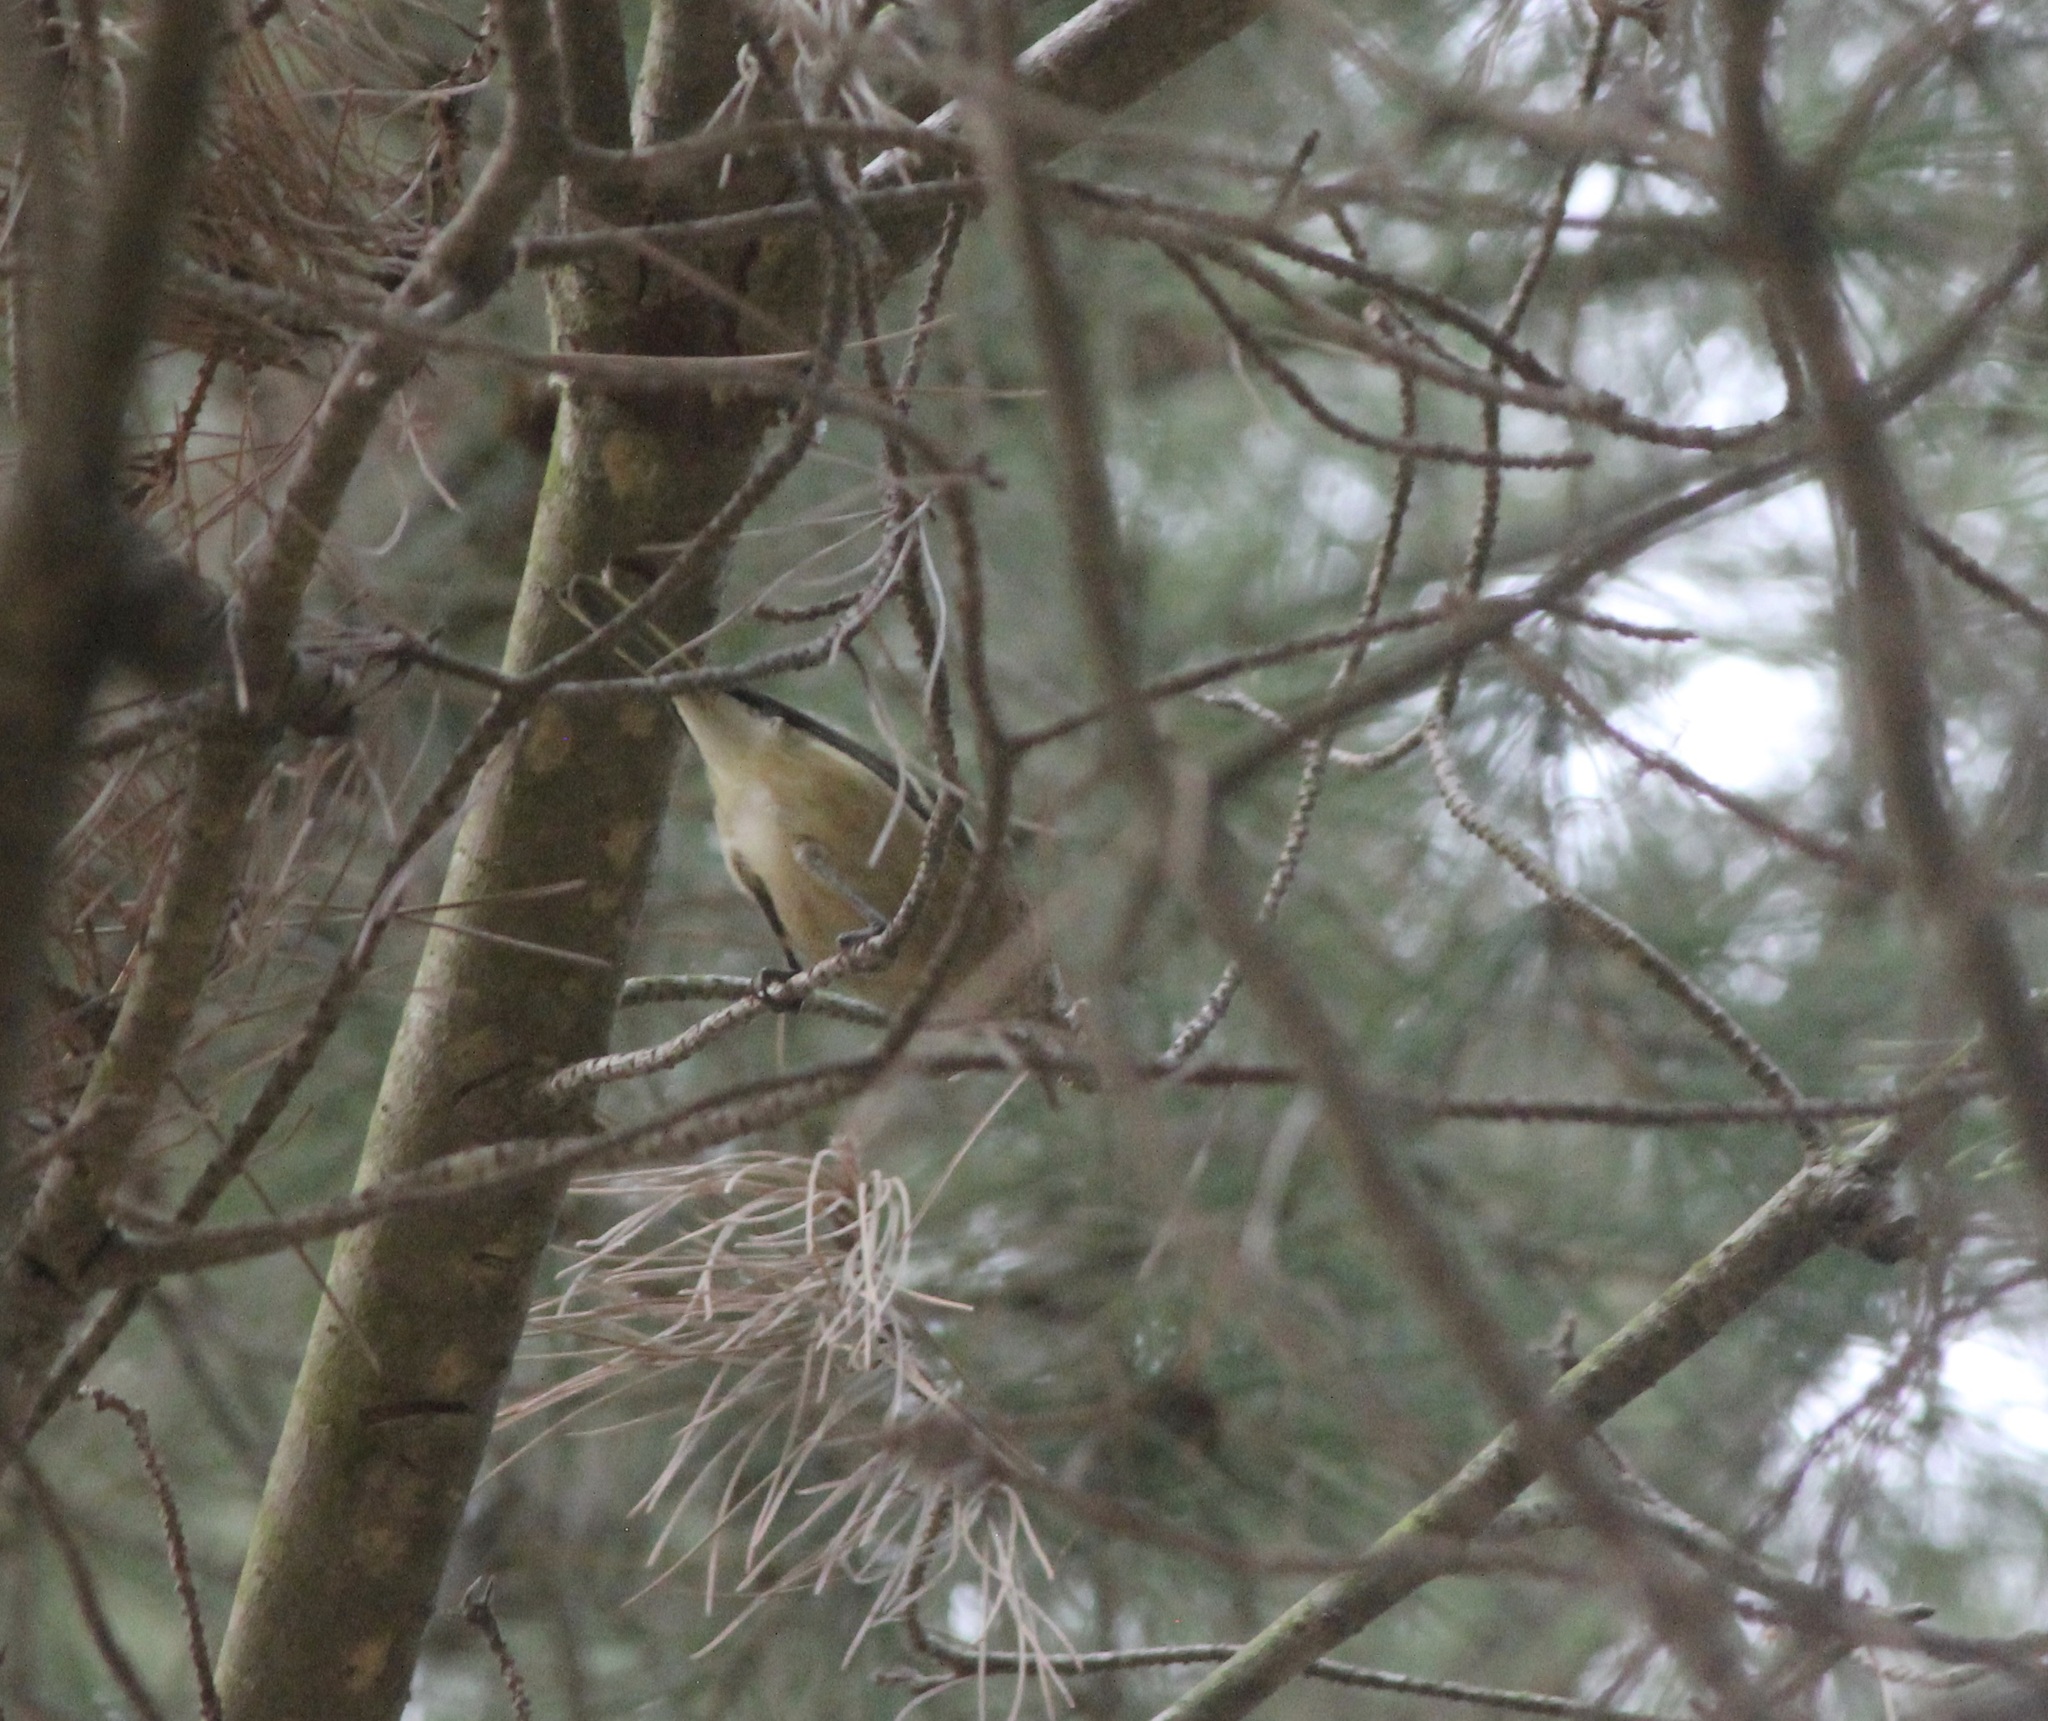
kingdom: Animalia
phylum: Chordata
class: Aves
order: Passeriformes
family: Vireonidae
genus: Vireo
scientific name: Vireo huttoni
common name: Hutton's vireo
